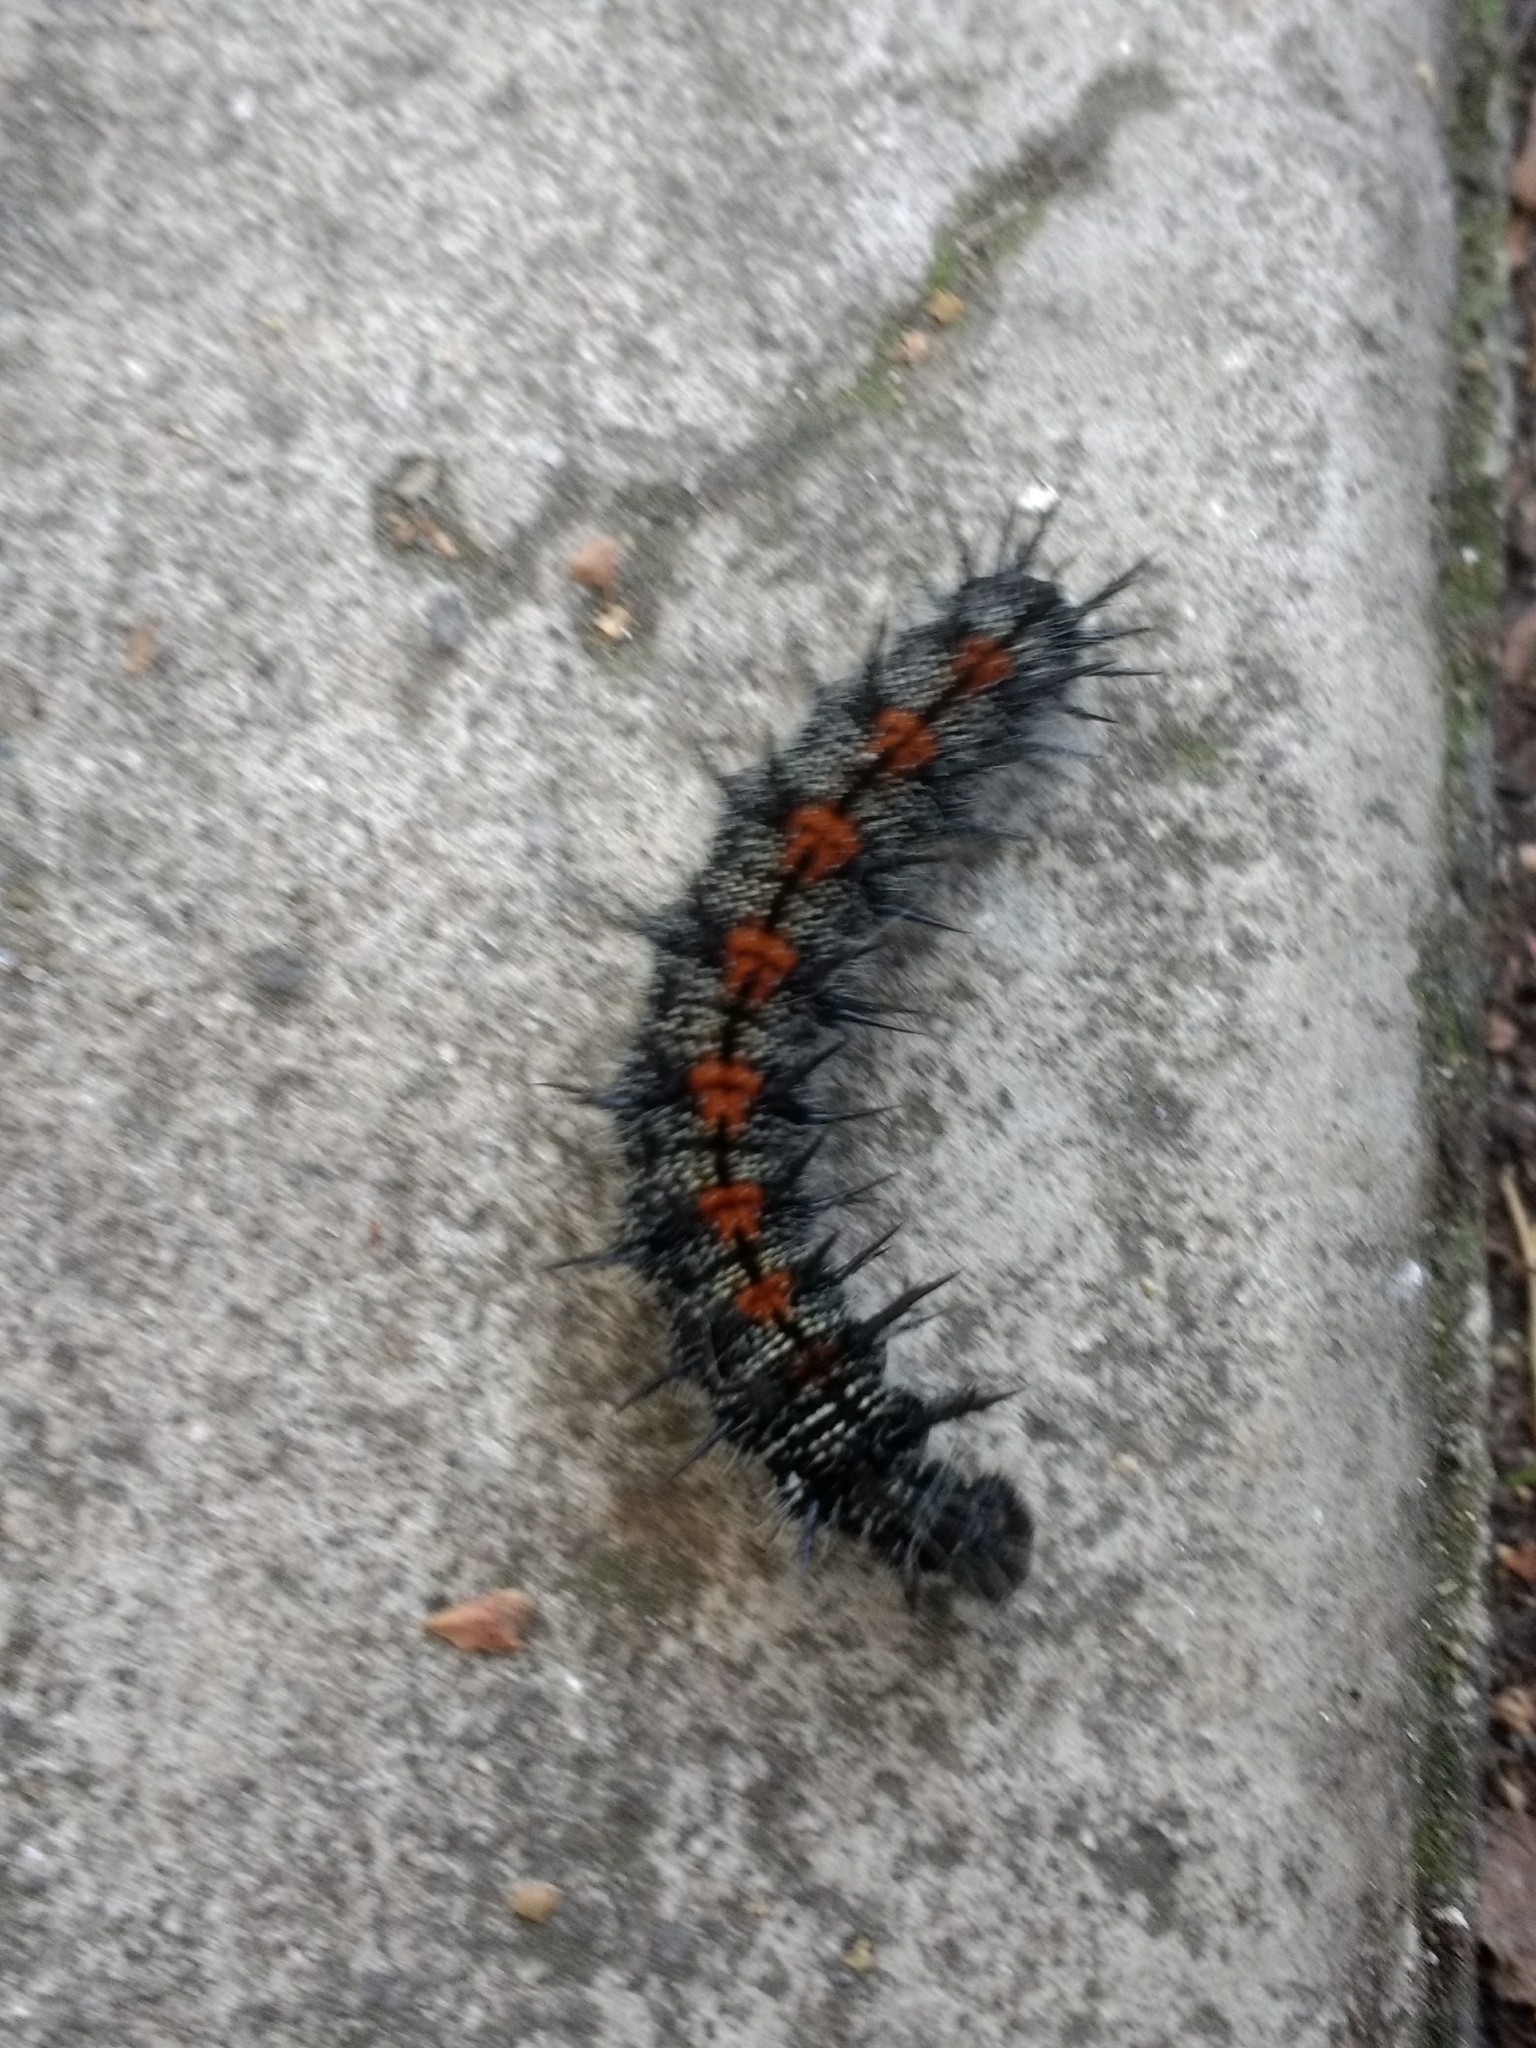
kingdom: Animalia
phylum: Arthropoda
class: Insecta
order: Lepidoptera
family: Nymphalidae
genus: Nymphalis
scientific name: Nymphalis antiopa
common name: Camberwell beauty
